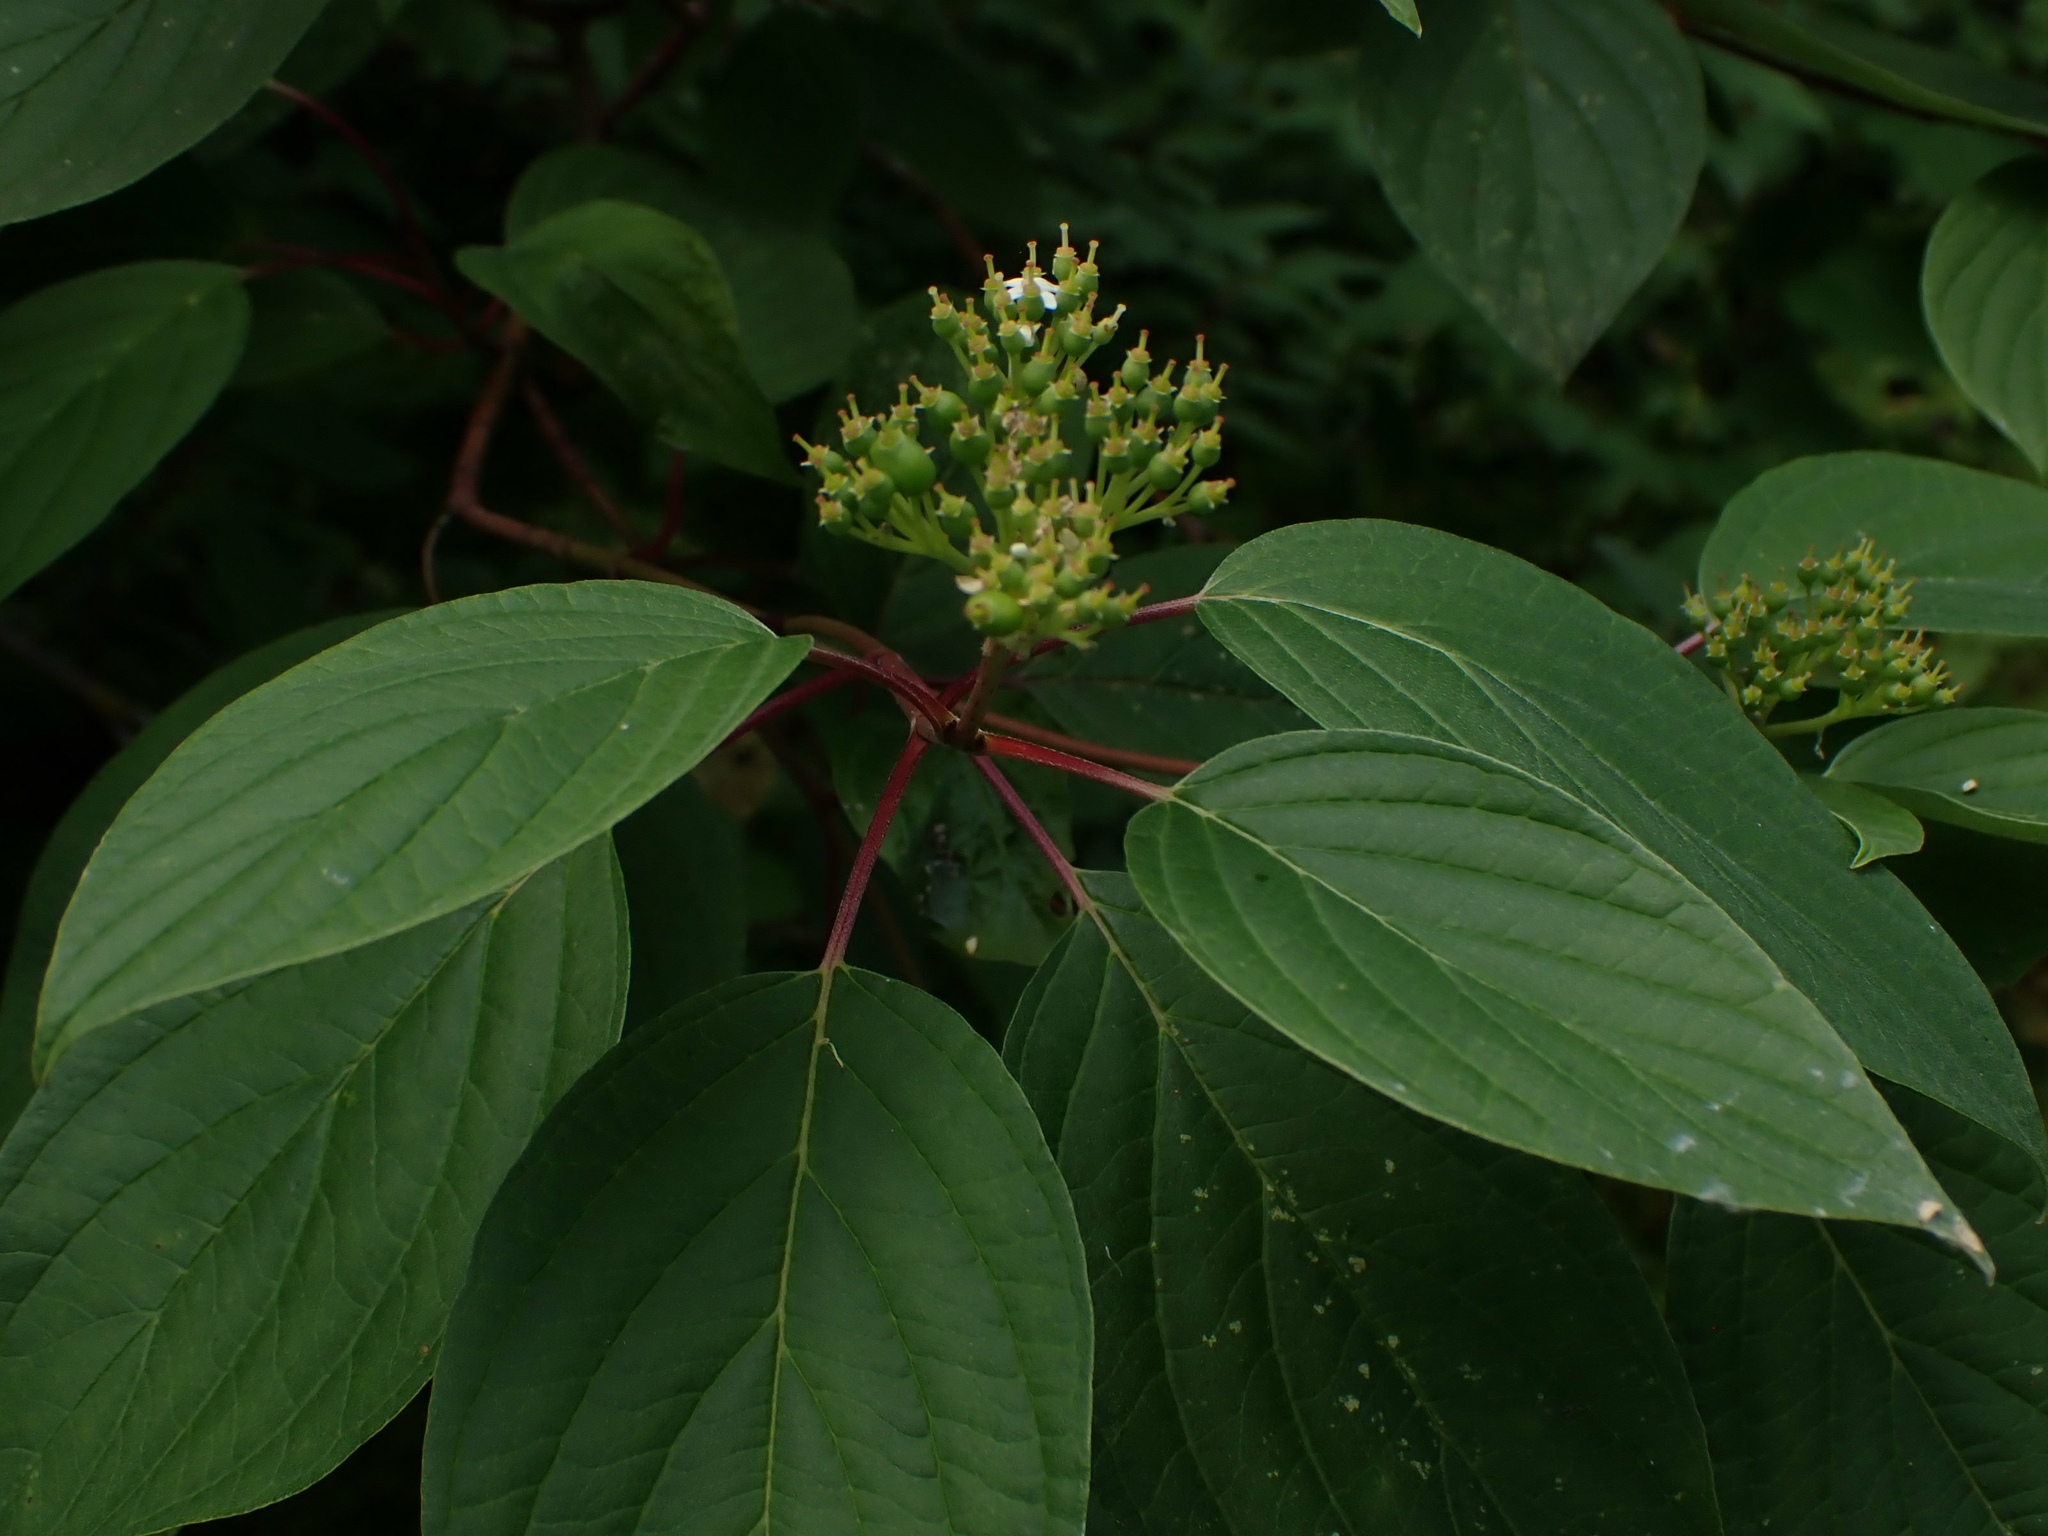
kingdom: Plantae
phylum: Tracheophyta
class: Magnoliopsida
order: Cornales
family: Cornaceae
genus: Cornus
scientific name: Cornus sericea
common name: Red-osier dogwood
